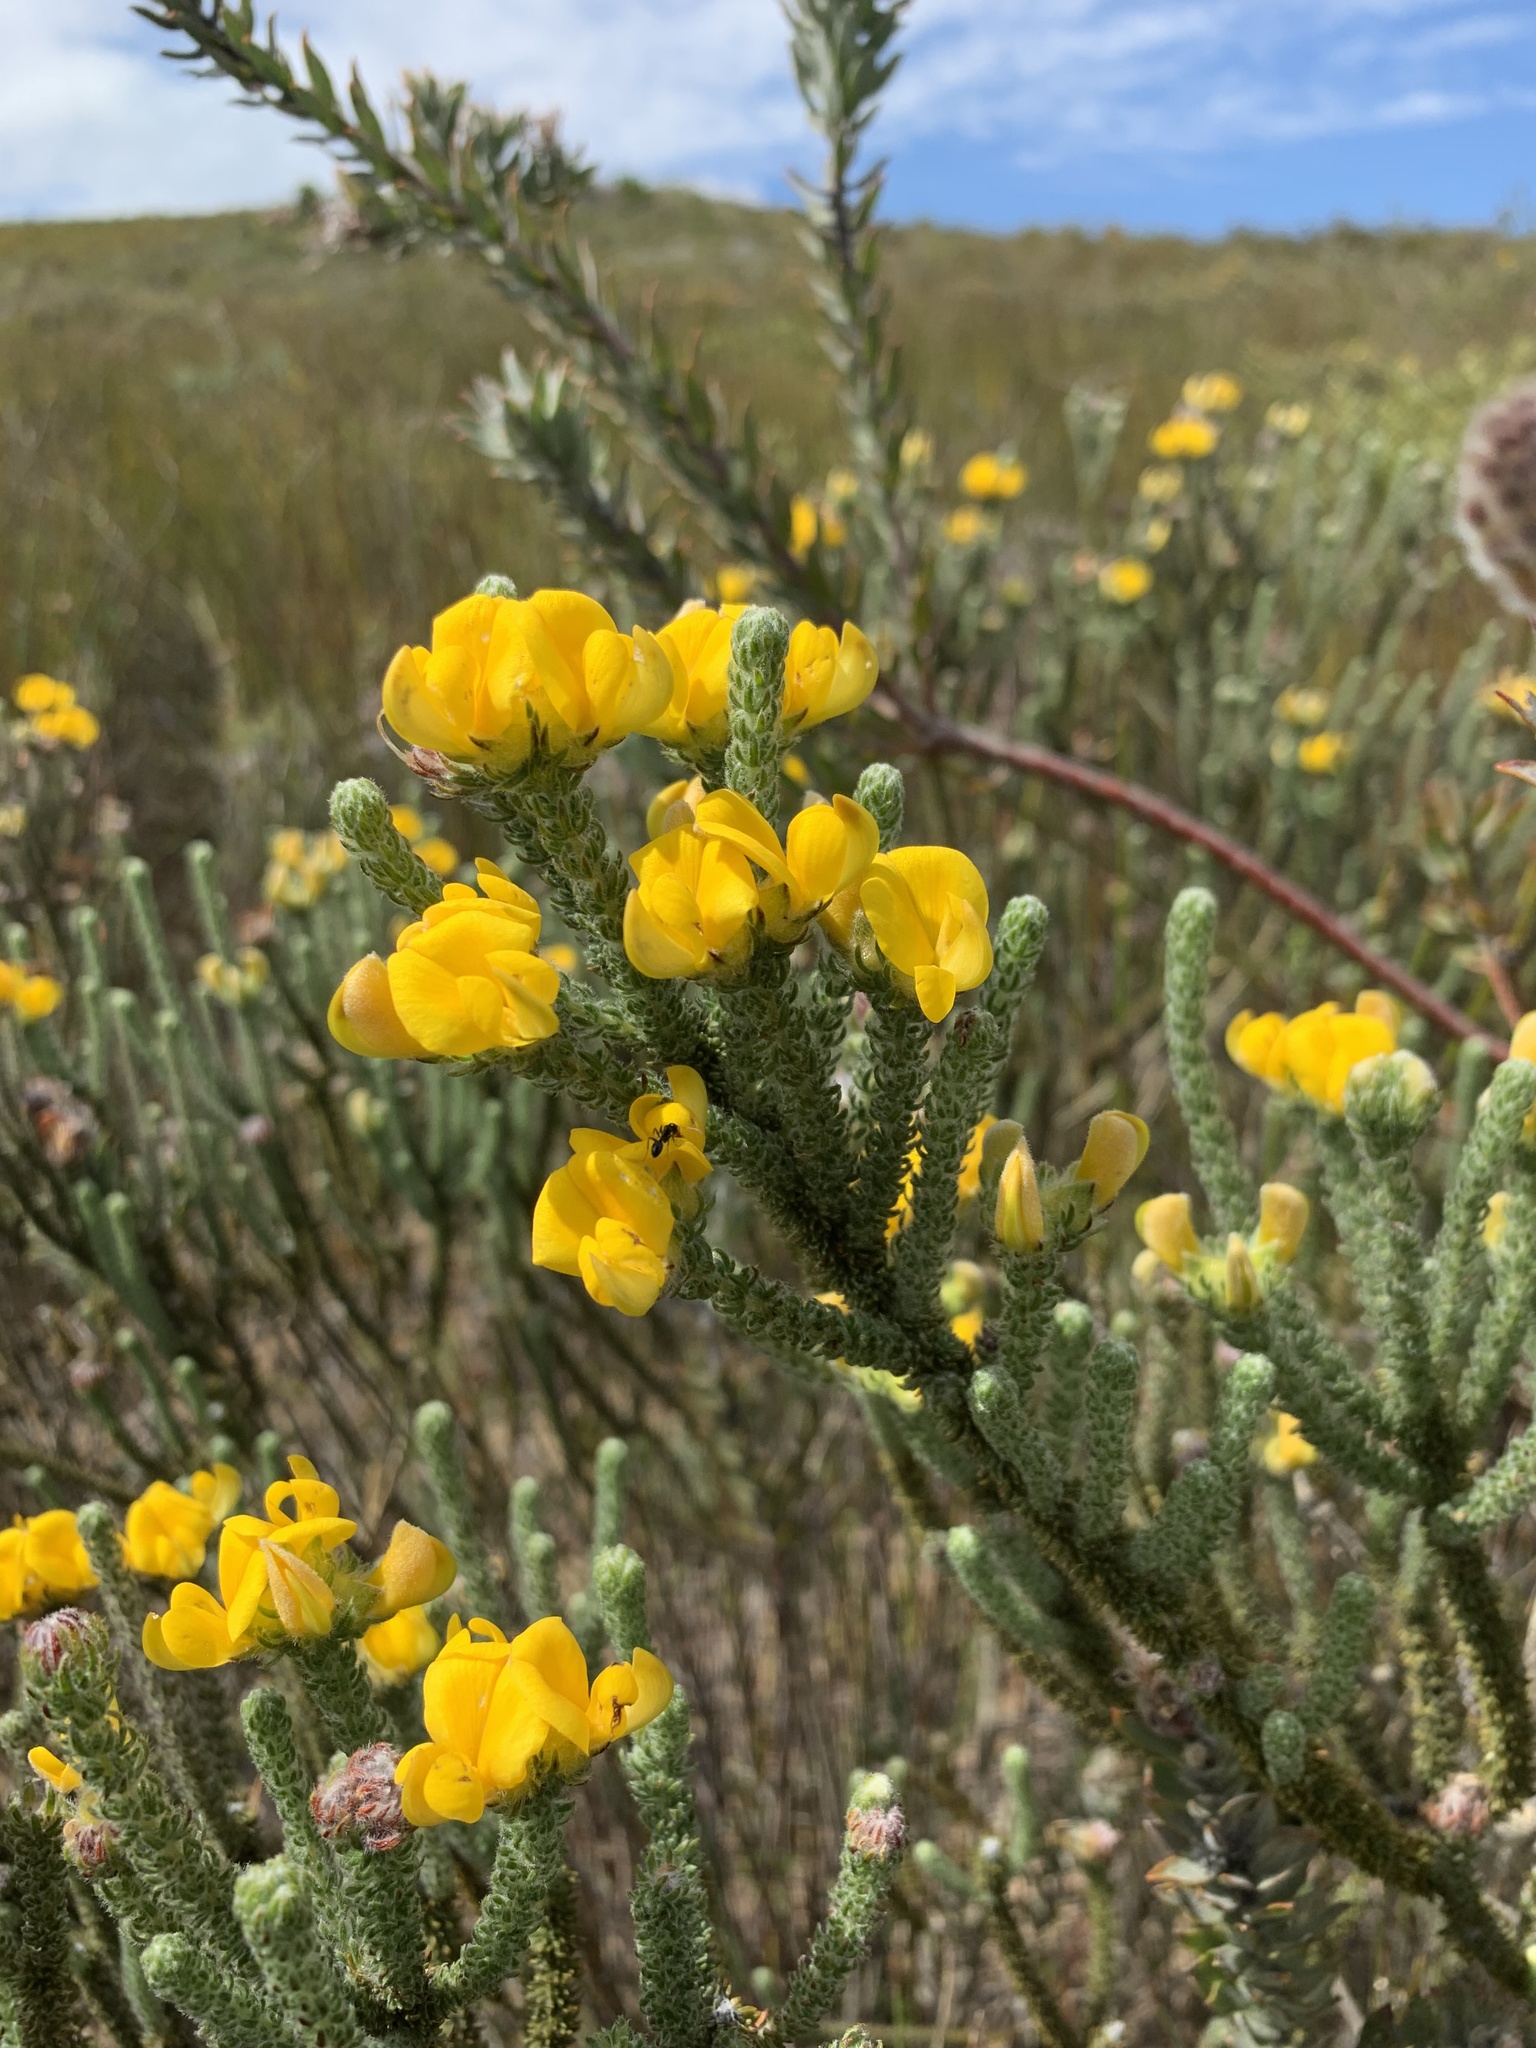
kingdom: Plantae
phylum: Tracheophyta
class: Magnoliopsida
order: Fabales
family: Fabaceae
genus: Aspalathus
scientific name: Aspalathus triquetra
